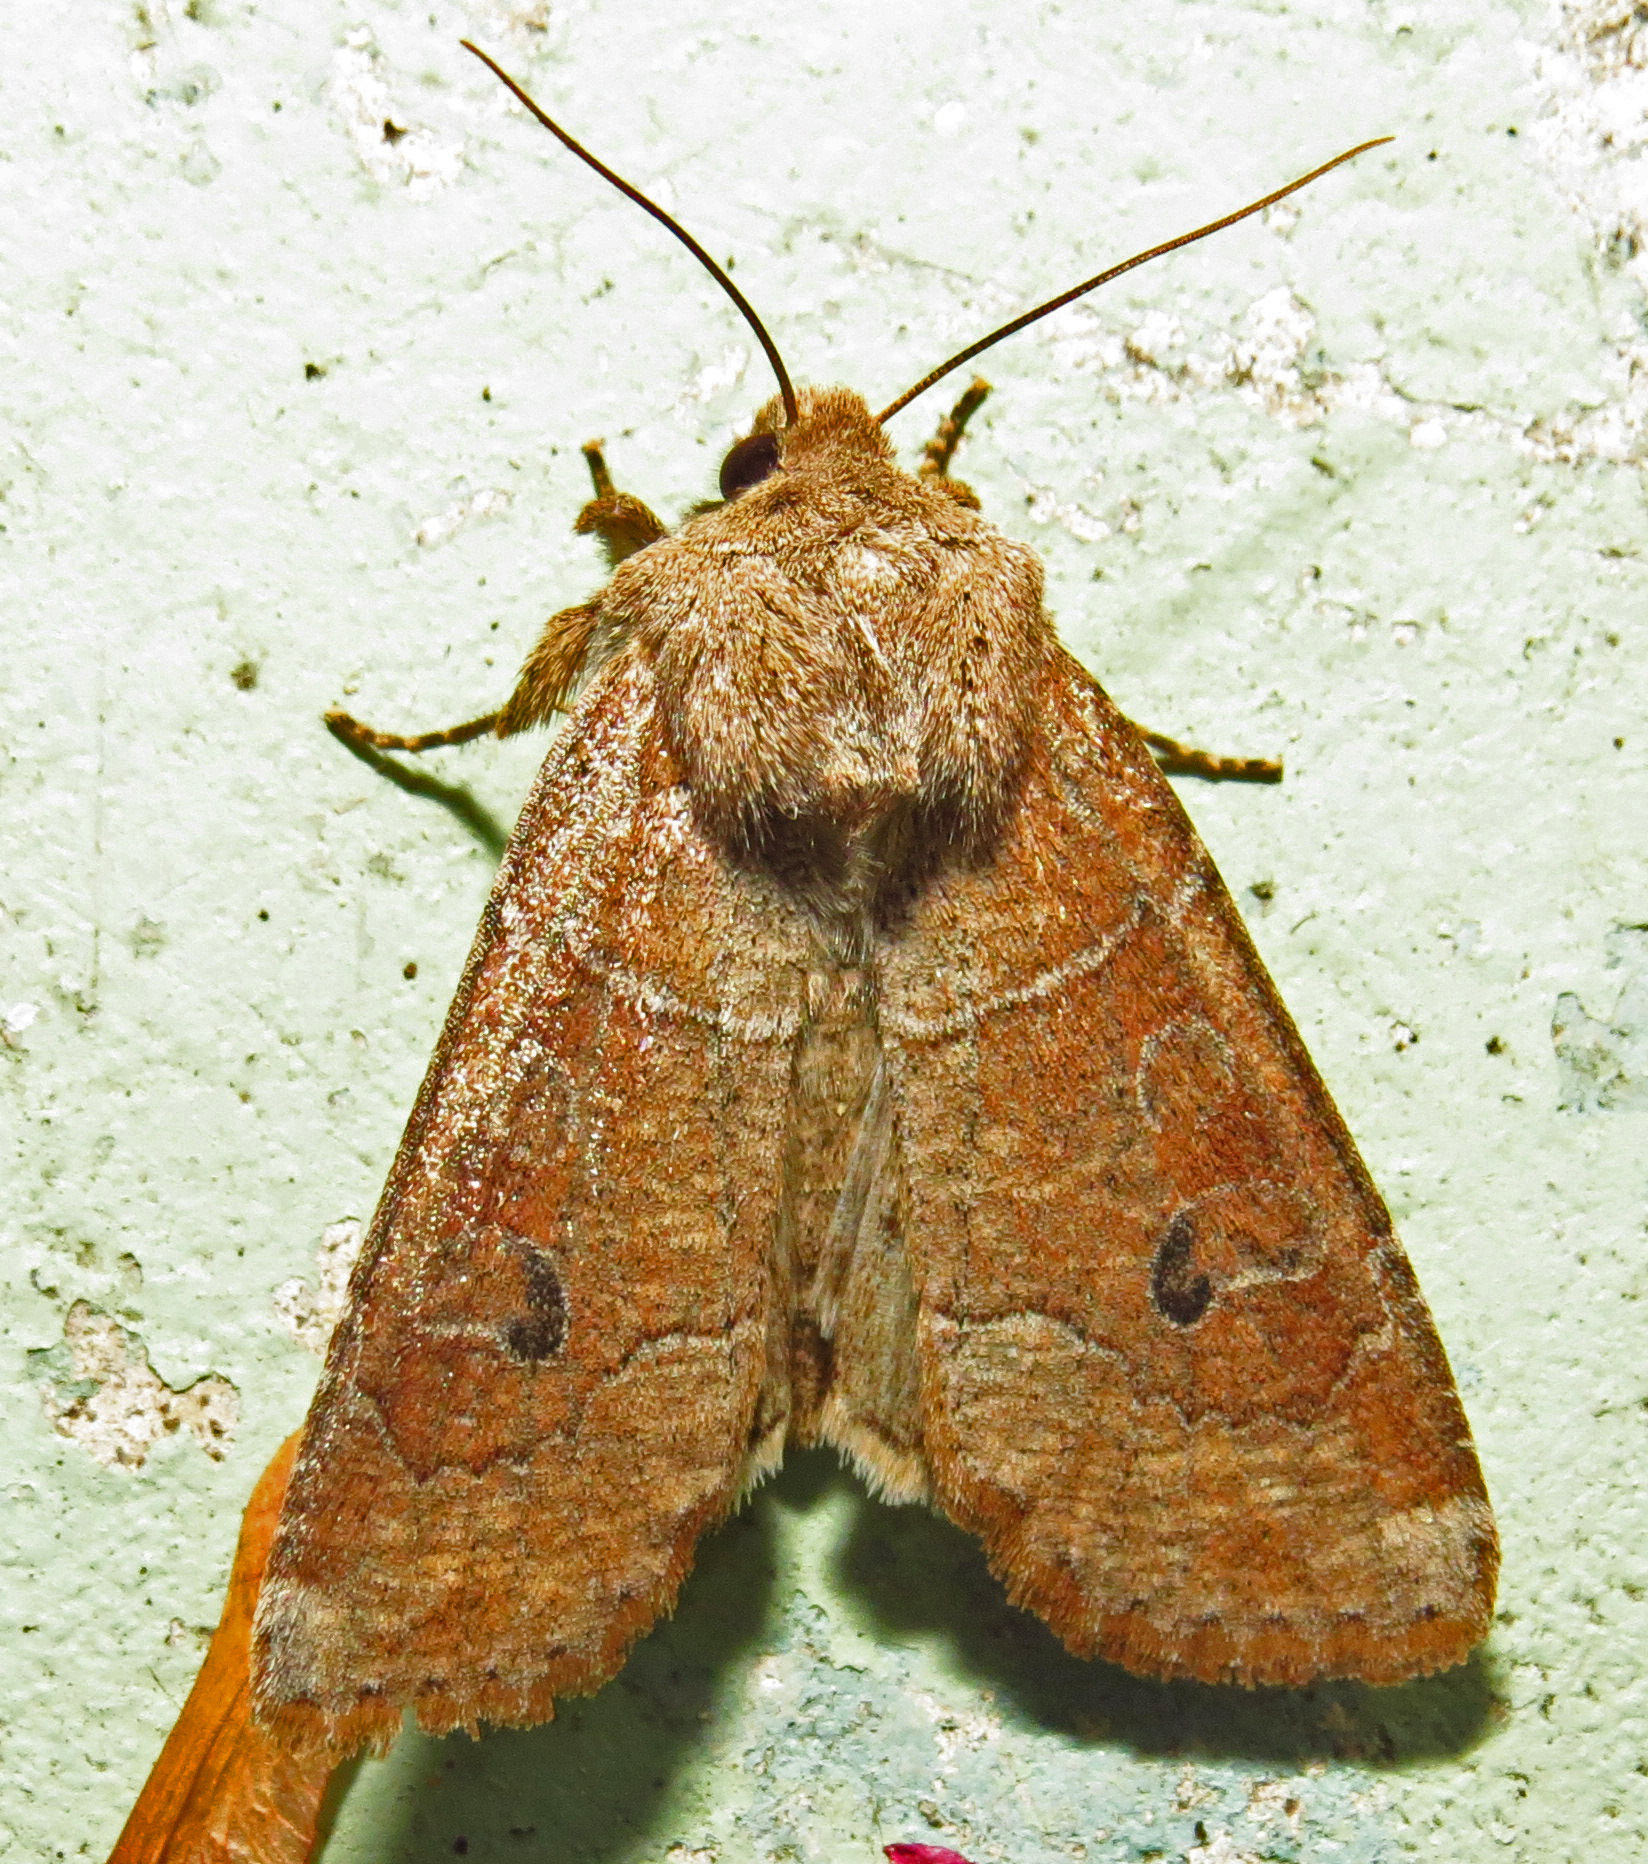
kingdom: Animalia
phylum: Arthropoda
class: Insecta
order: Lepidoptera
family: Noctuidae
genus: Crocigrapha
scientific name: Crocigrapha normani
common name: Norman's quaker
